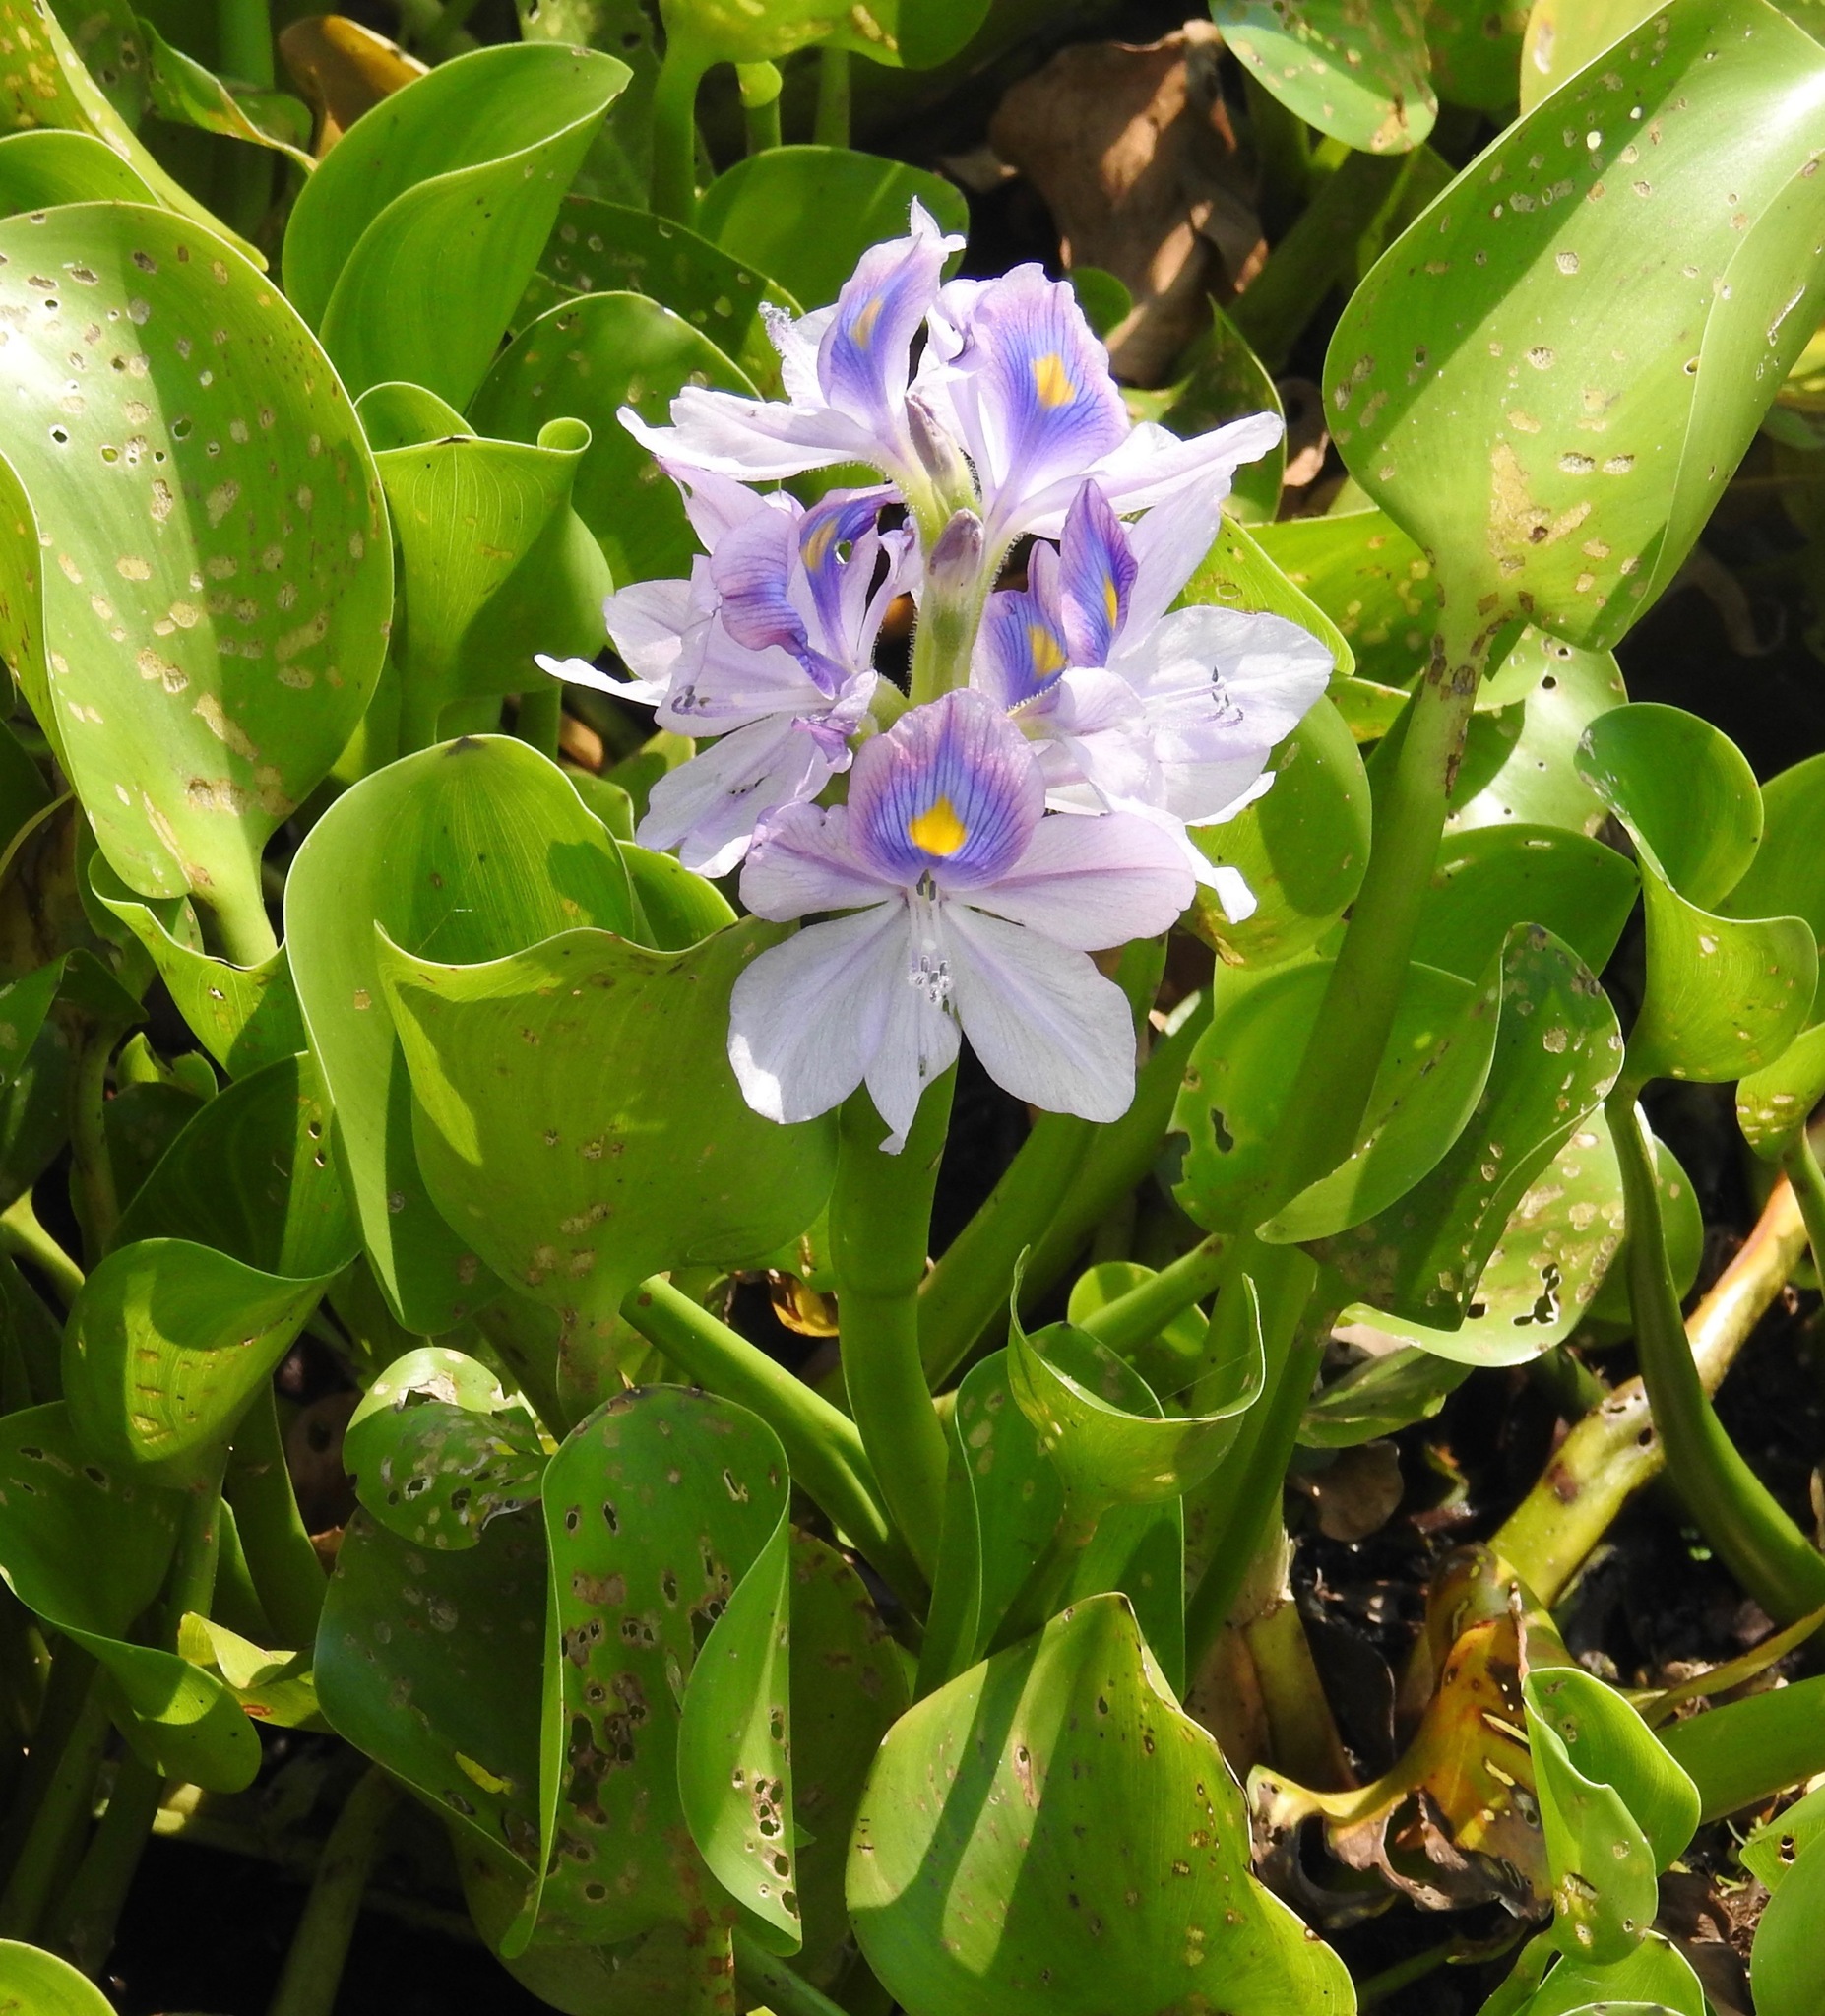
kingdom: Plantae
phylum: Tracheophyta
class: Liliopsida
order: Commelinales
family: Pontederiaceae
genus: Pontederia
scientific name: Pontederia crassipes
